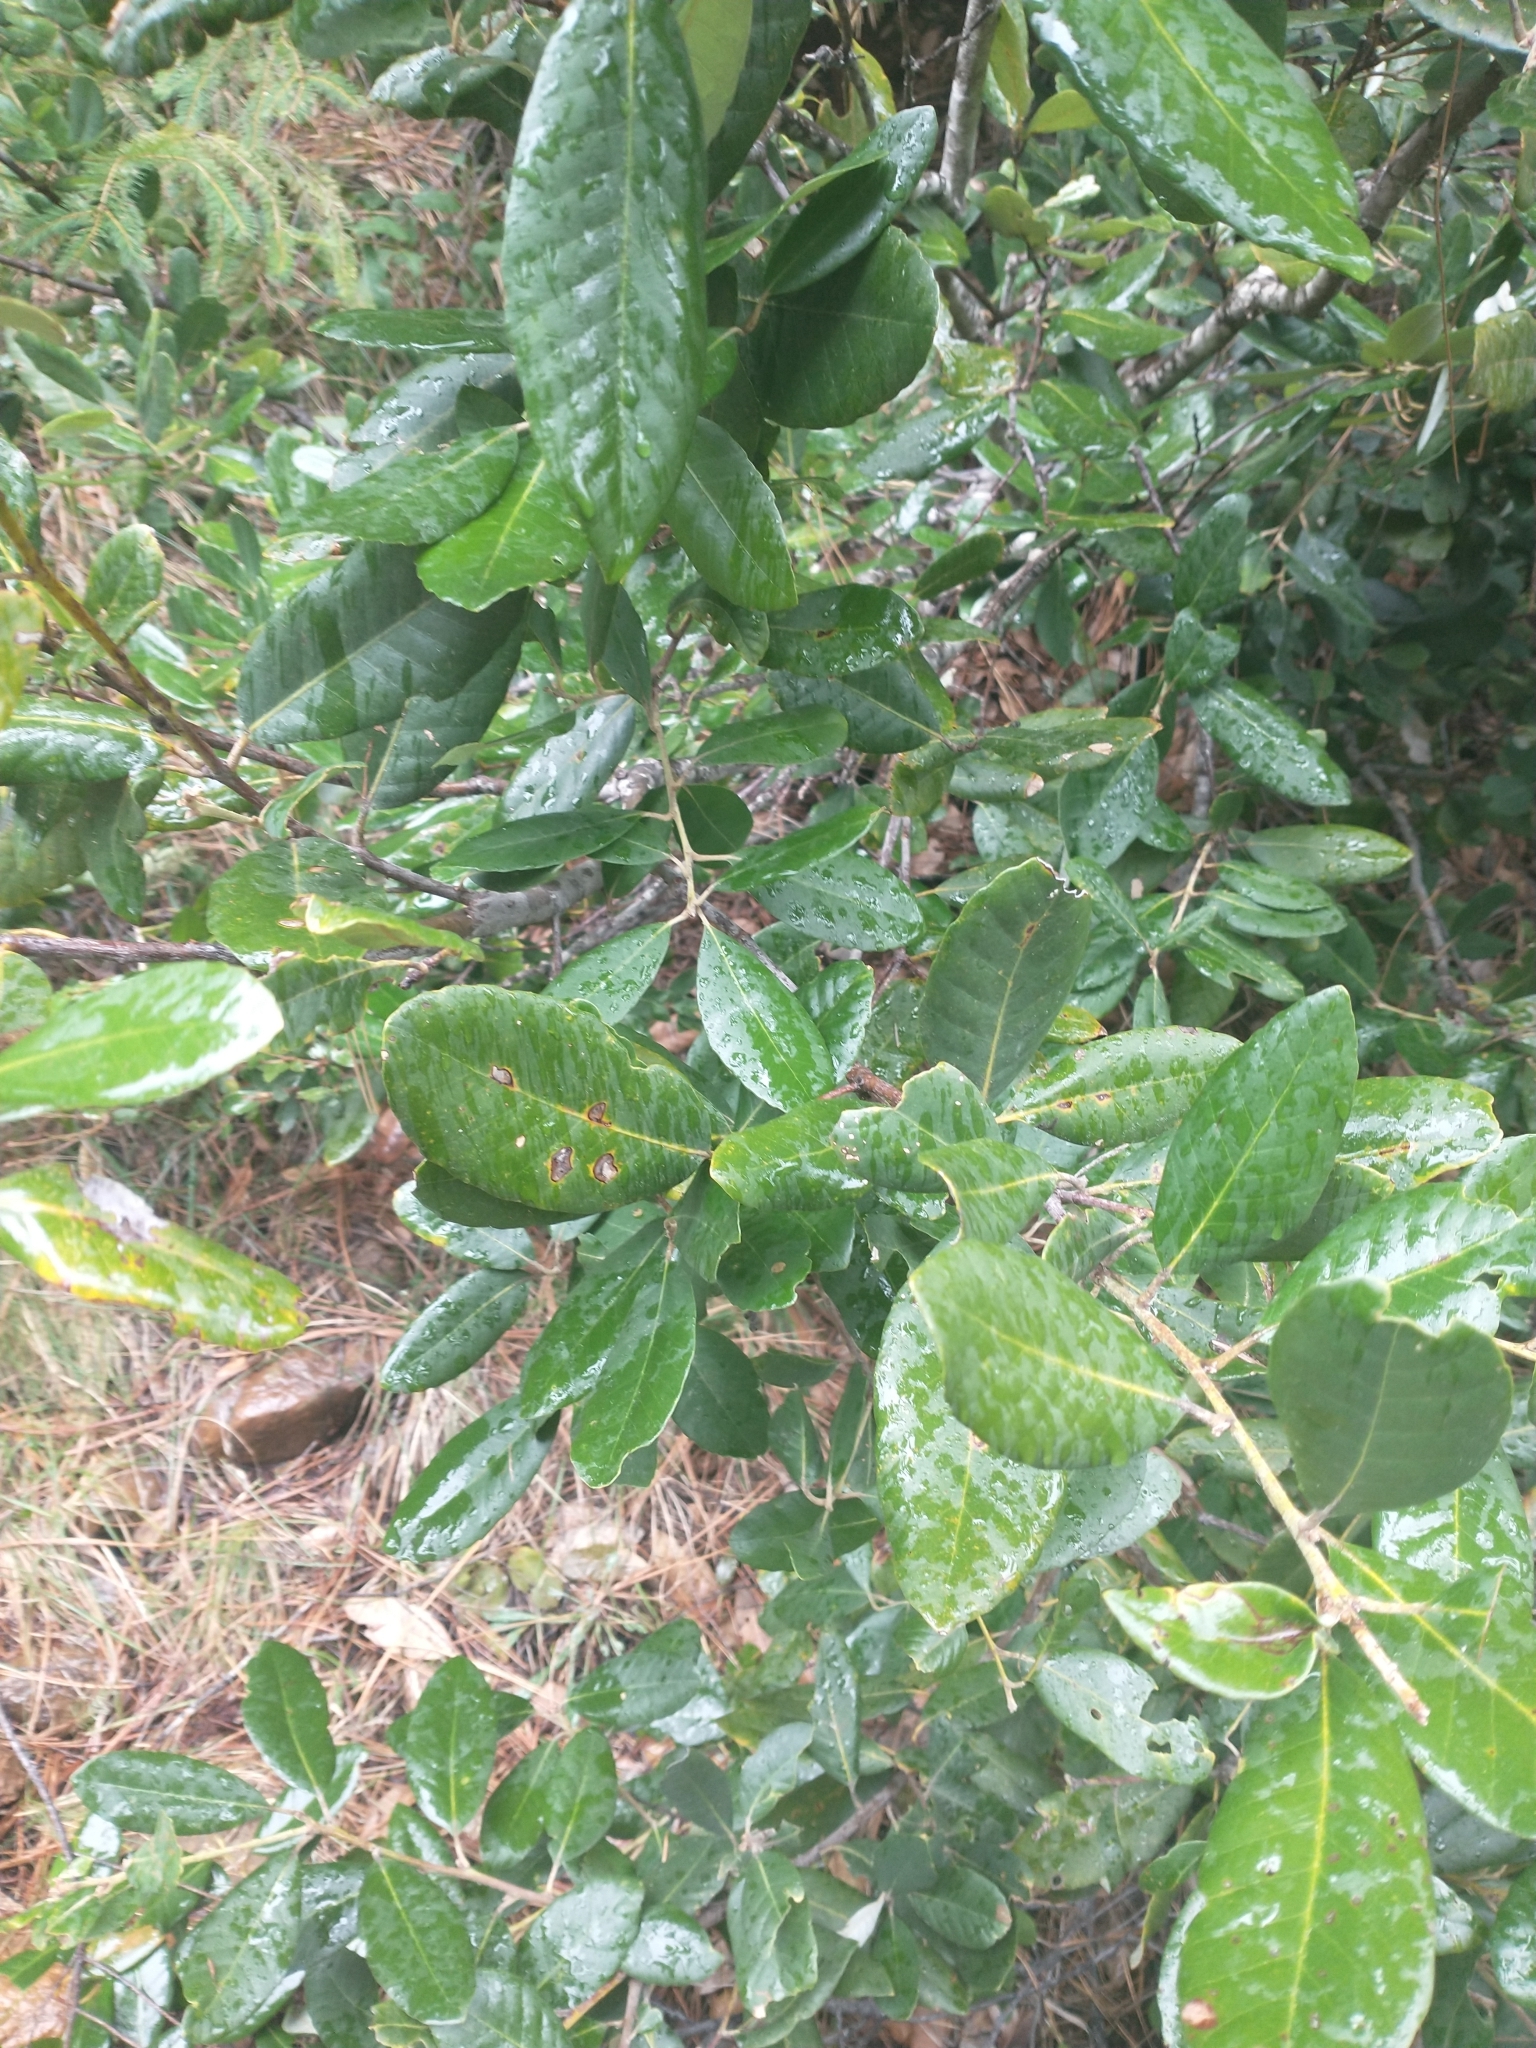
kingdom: Plantae
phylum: Tracheophyta
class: Magnoliopsida
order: Fagales
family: Fagaceae
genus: Notholithocarpus
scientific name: Notholithocarpus densiflorus
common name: Tan bark oak
